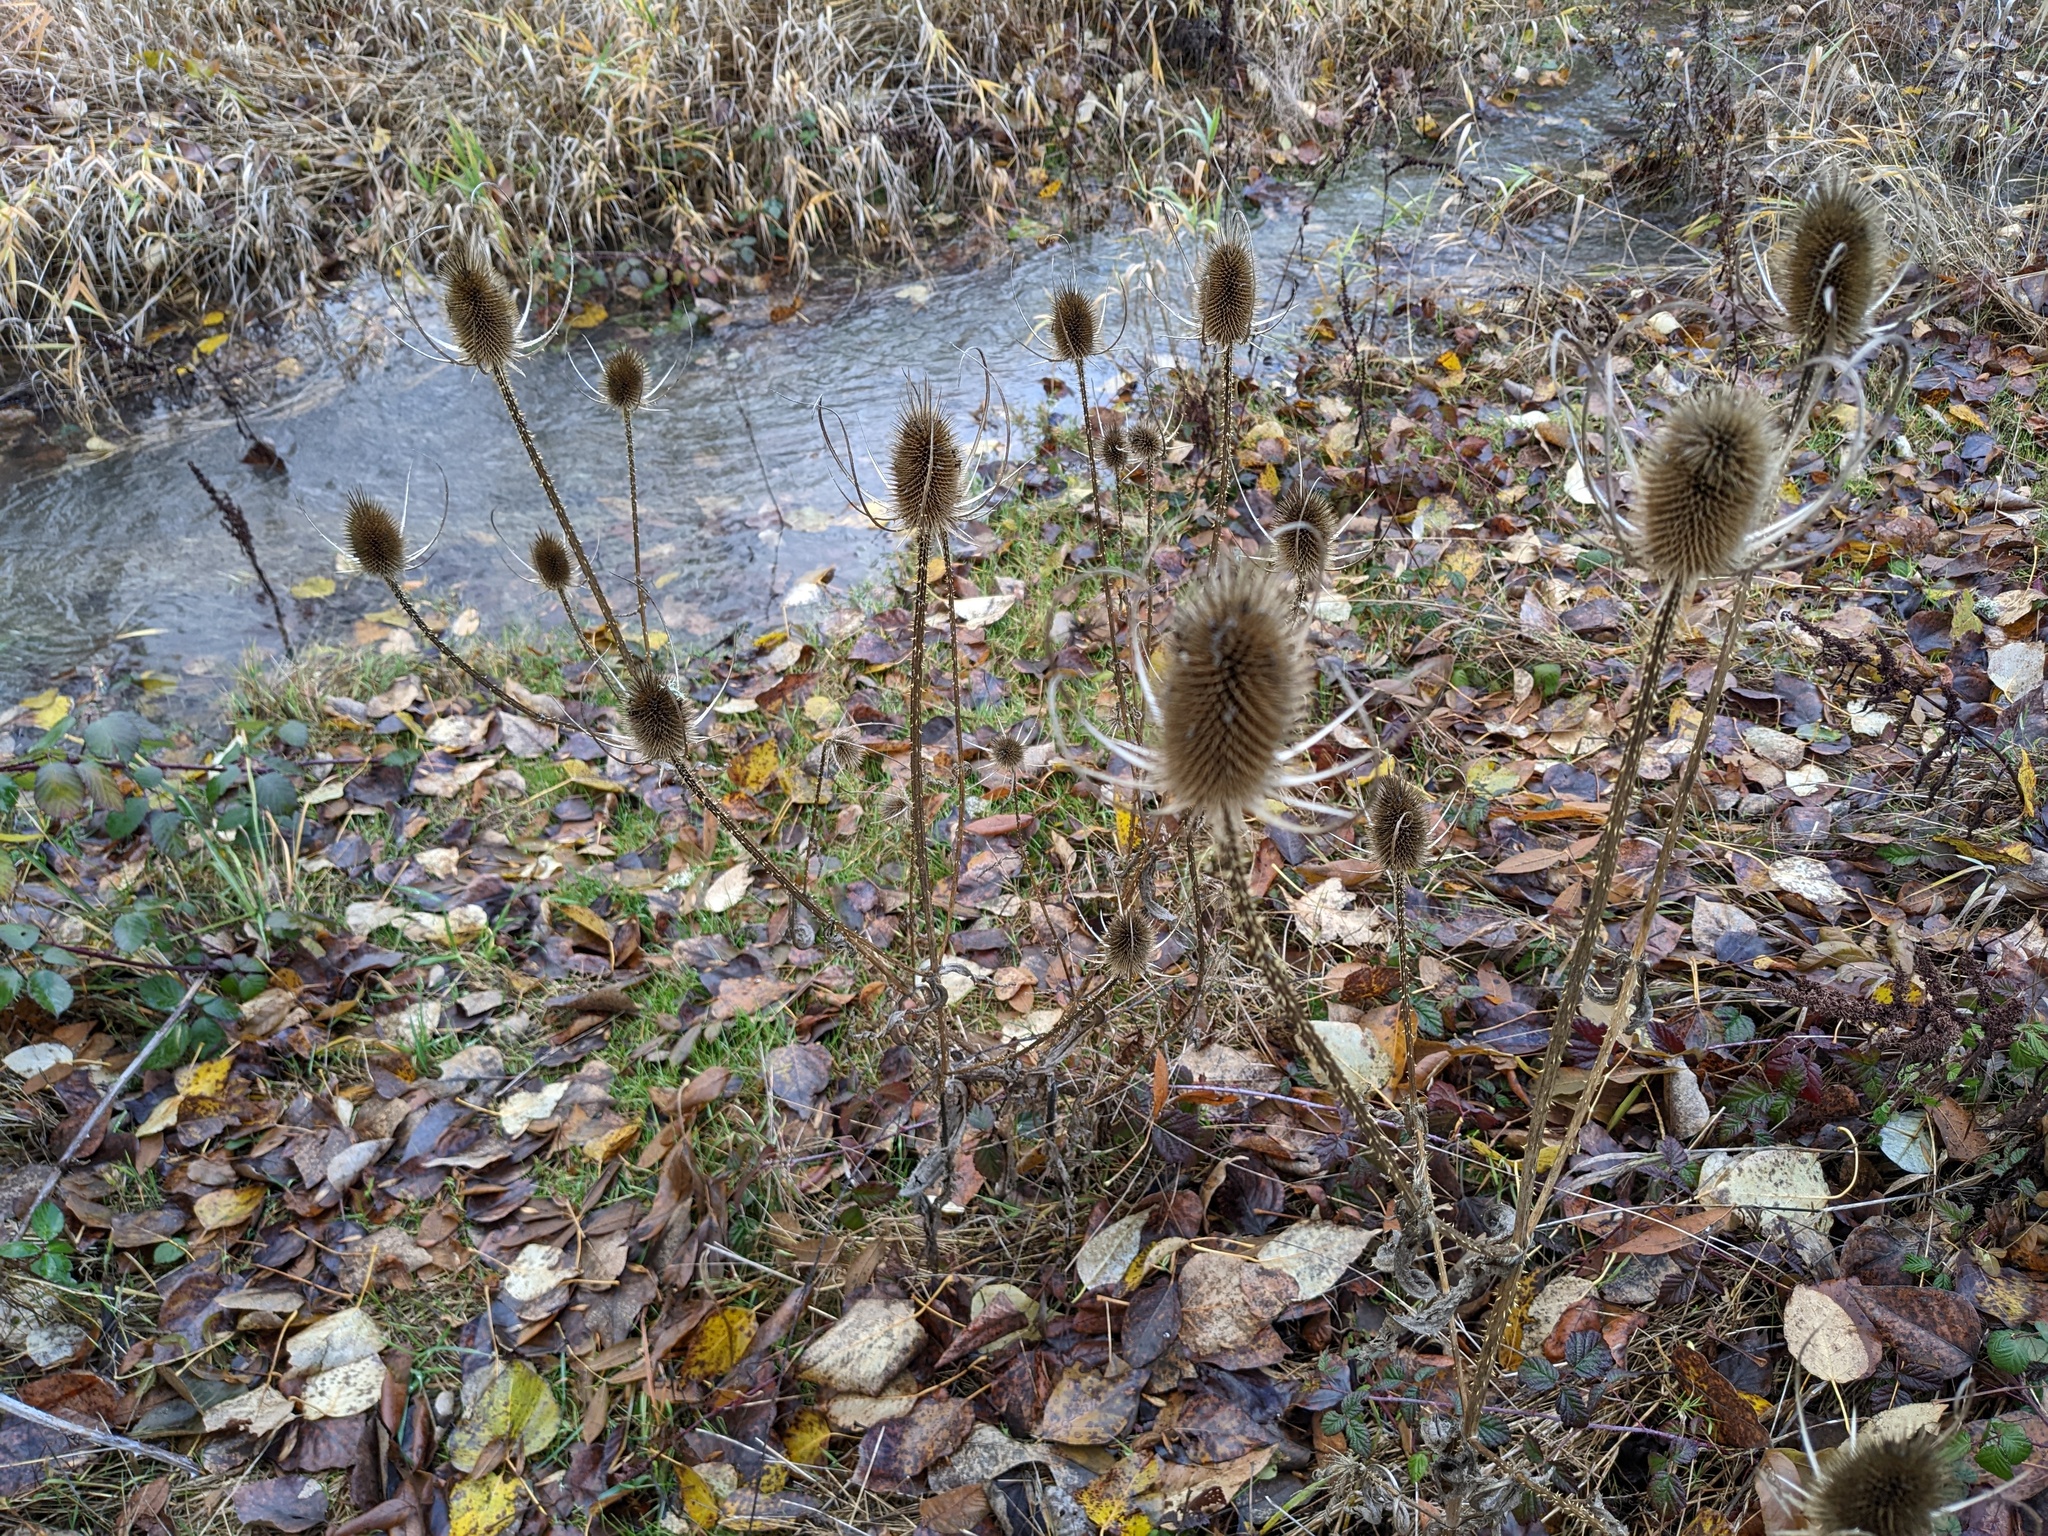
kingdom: Plantae
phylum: Tracheophyta
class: Magnoliopsida
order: Dipsacales
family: Caprifoliaceae
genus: Dipsacus
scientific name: Dipsacus fullonum
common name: Teasel
